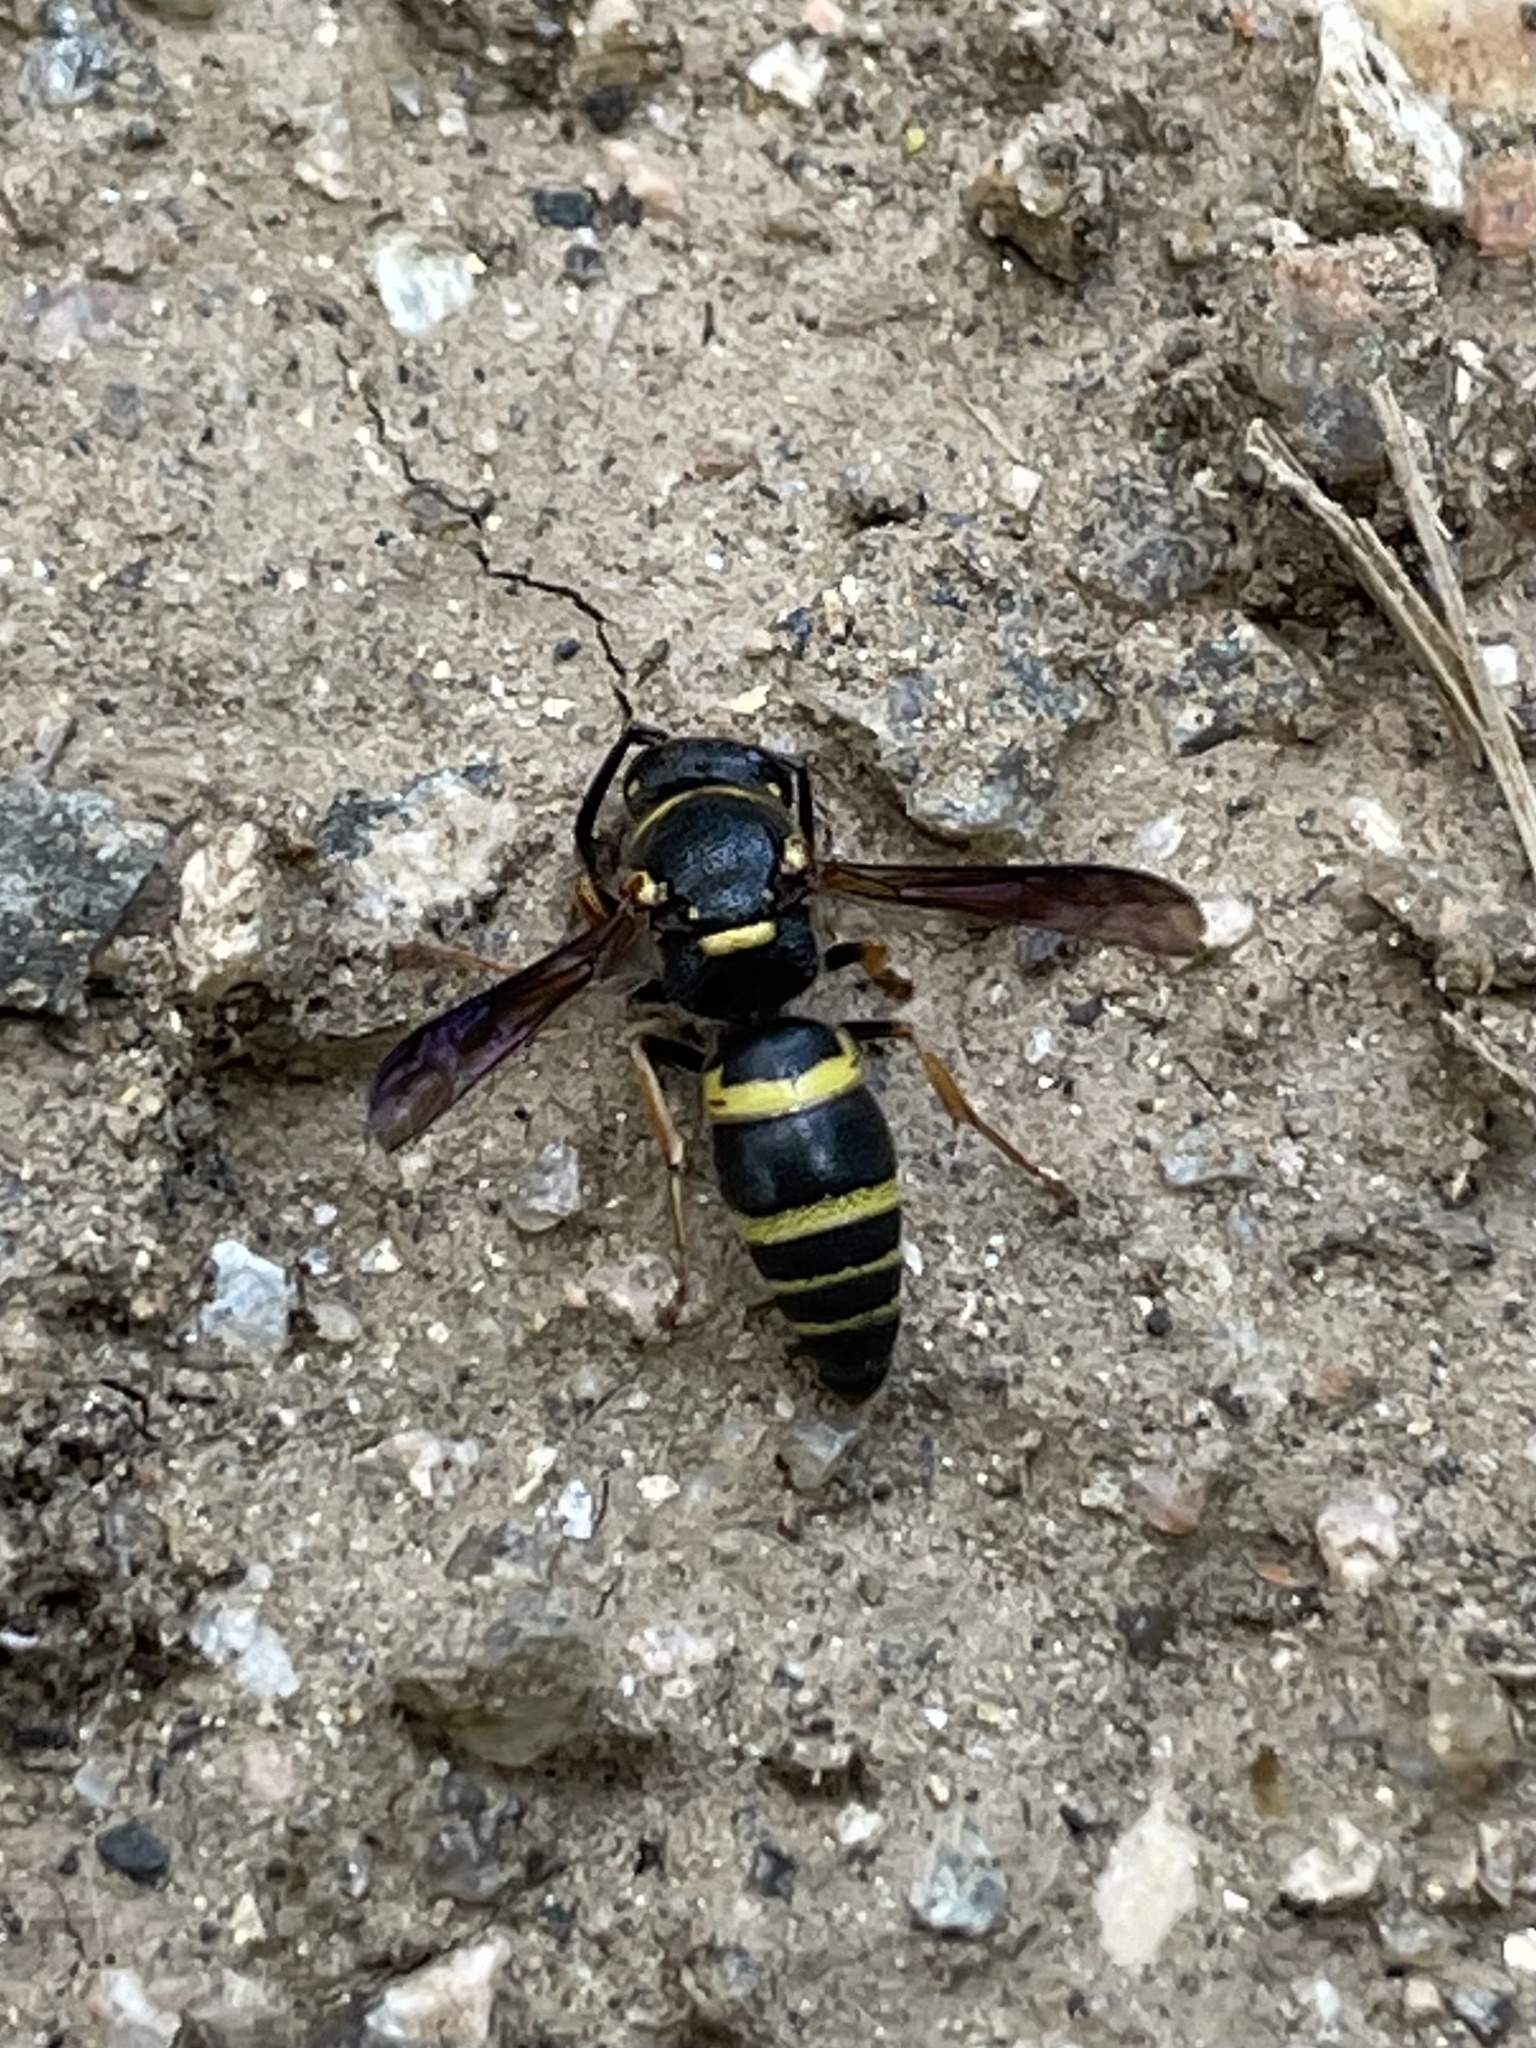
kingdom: Animalia
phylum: Arthropoda
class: Insecta
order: Hymenoptera
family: Eumenidae
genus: Euodynerus
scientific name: Euodynerus foraminatus
